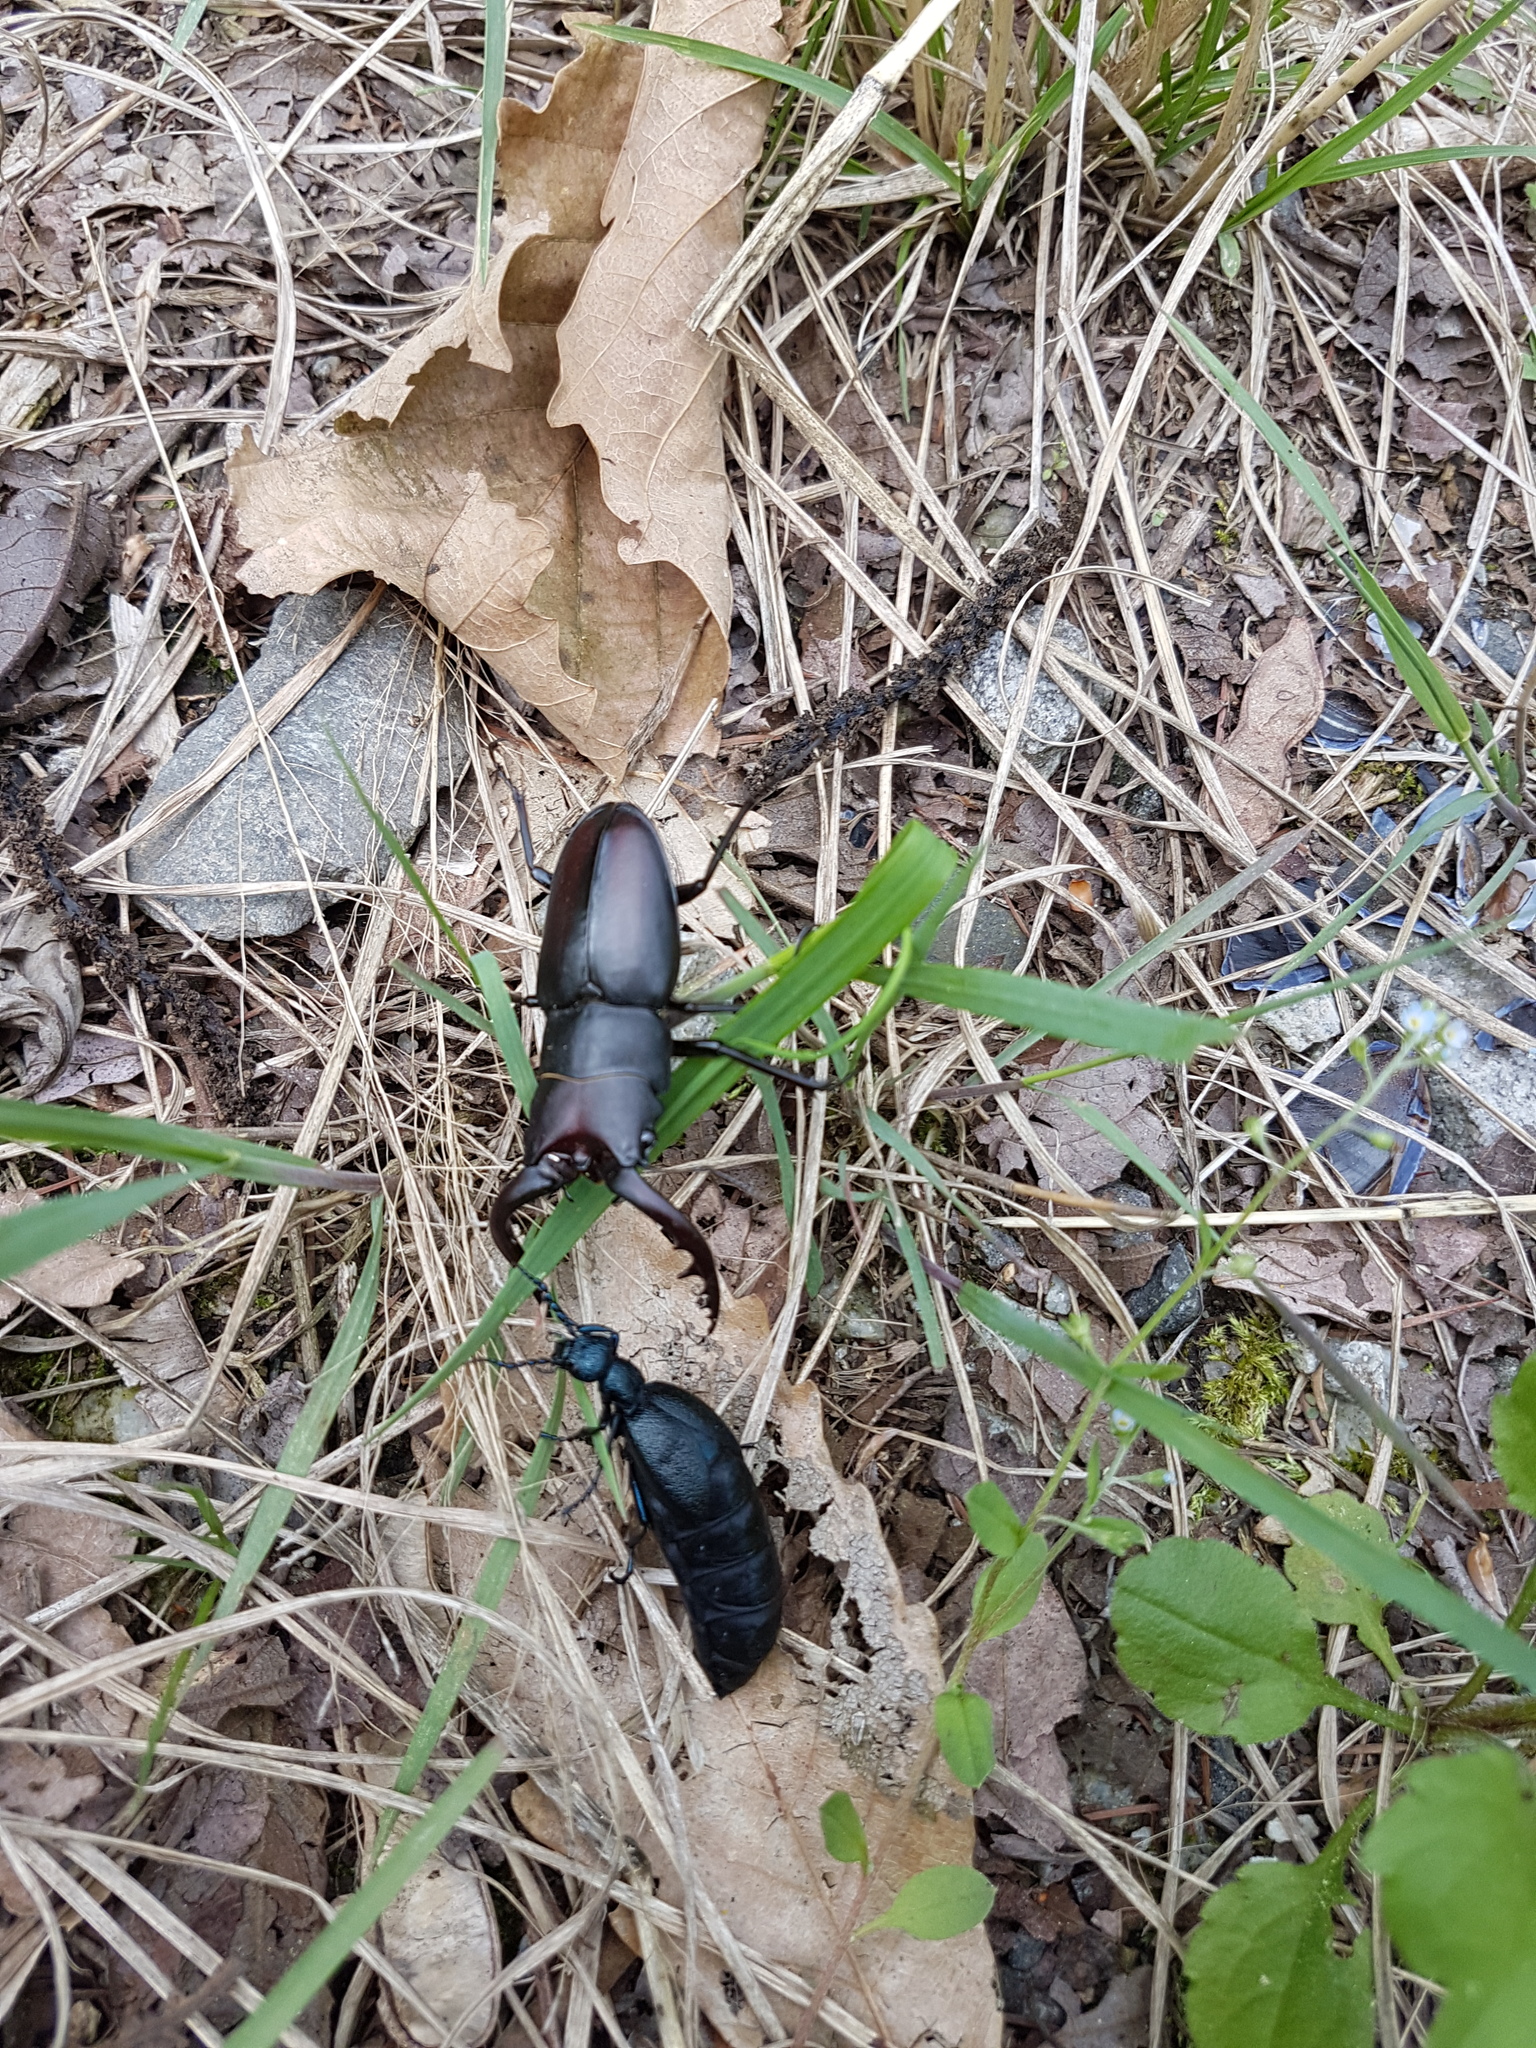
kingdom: Animalia
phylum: Arthropoda
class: Insecta
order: Coleoptera
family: Lucanidae
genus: Prosopocoilus
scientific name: Prosopocoilus inclinatus
